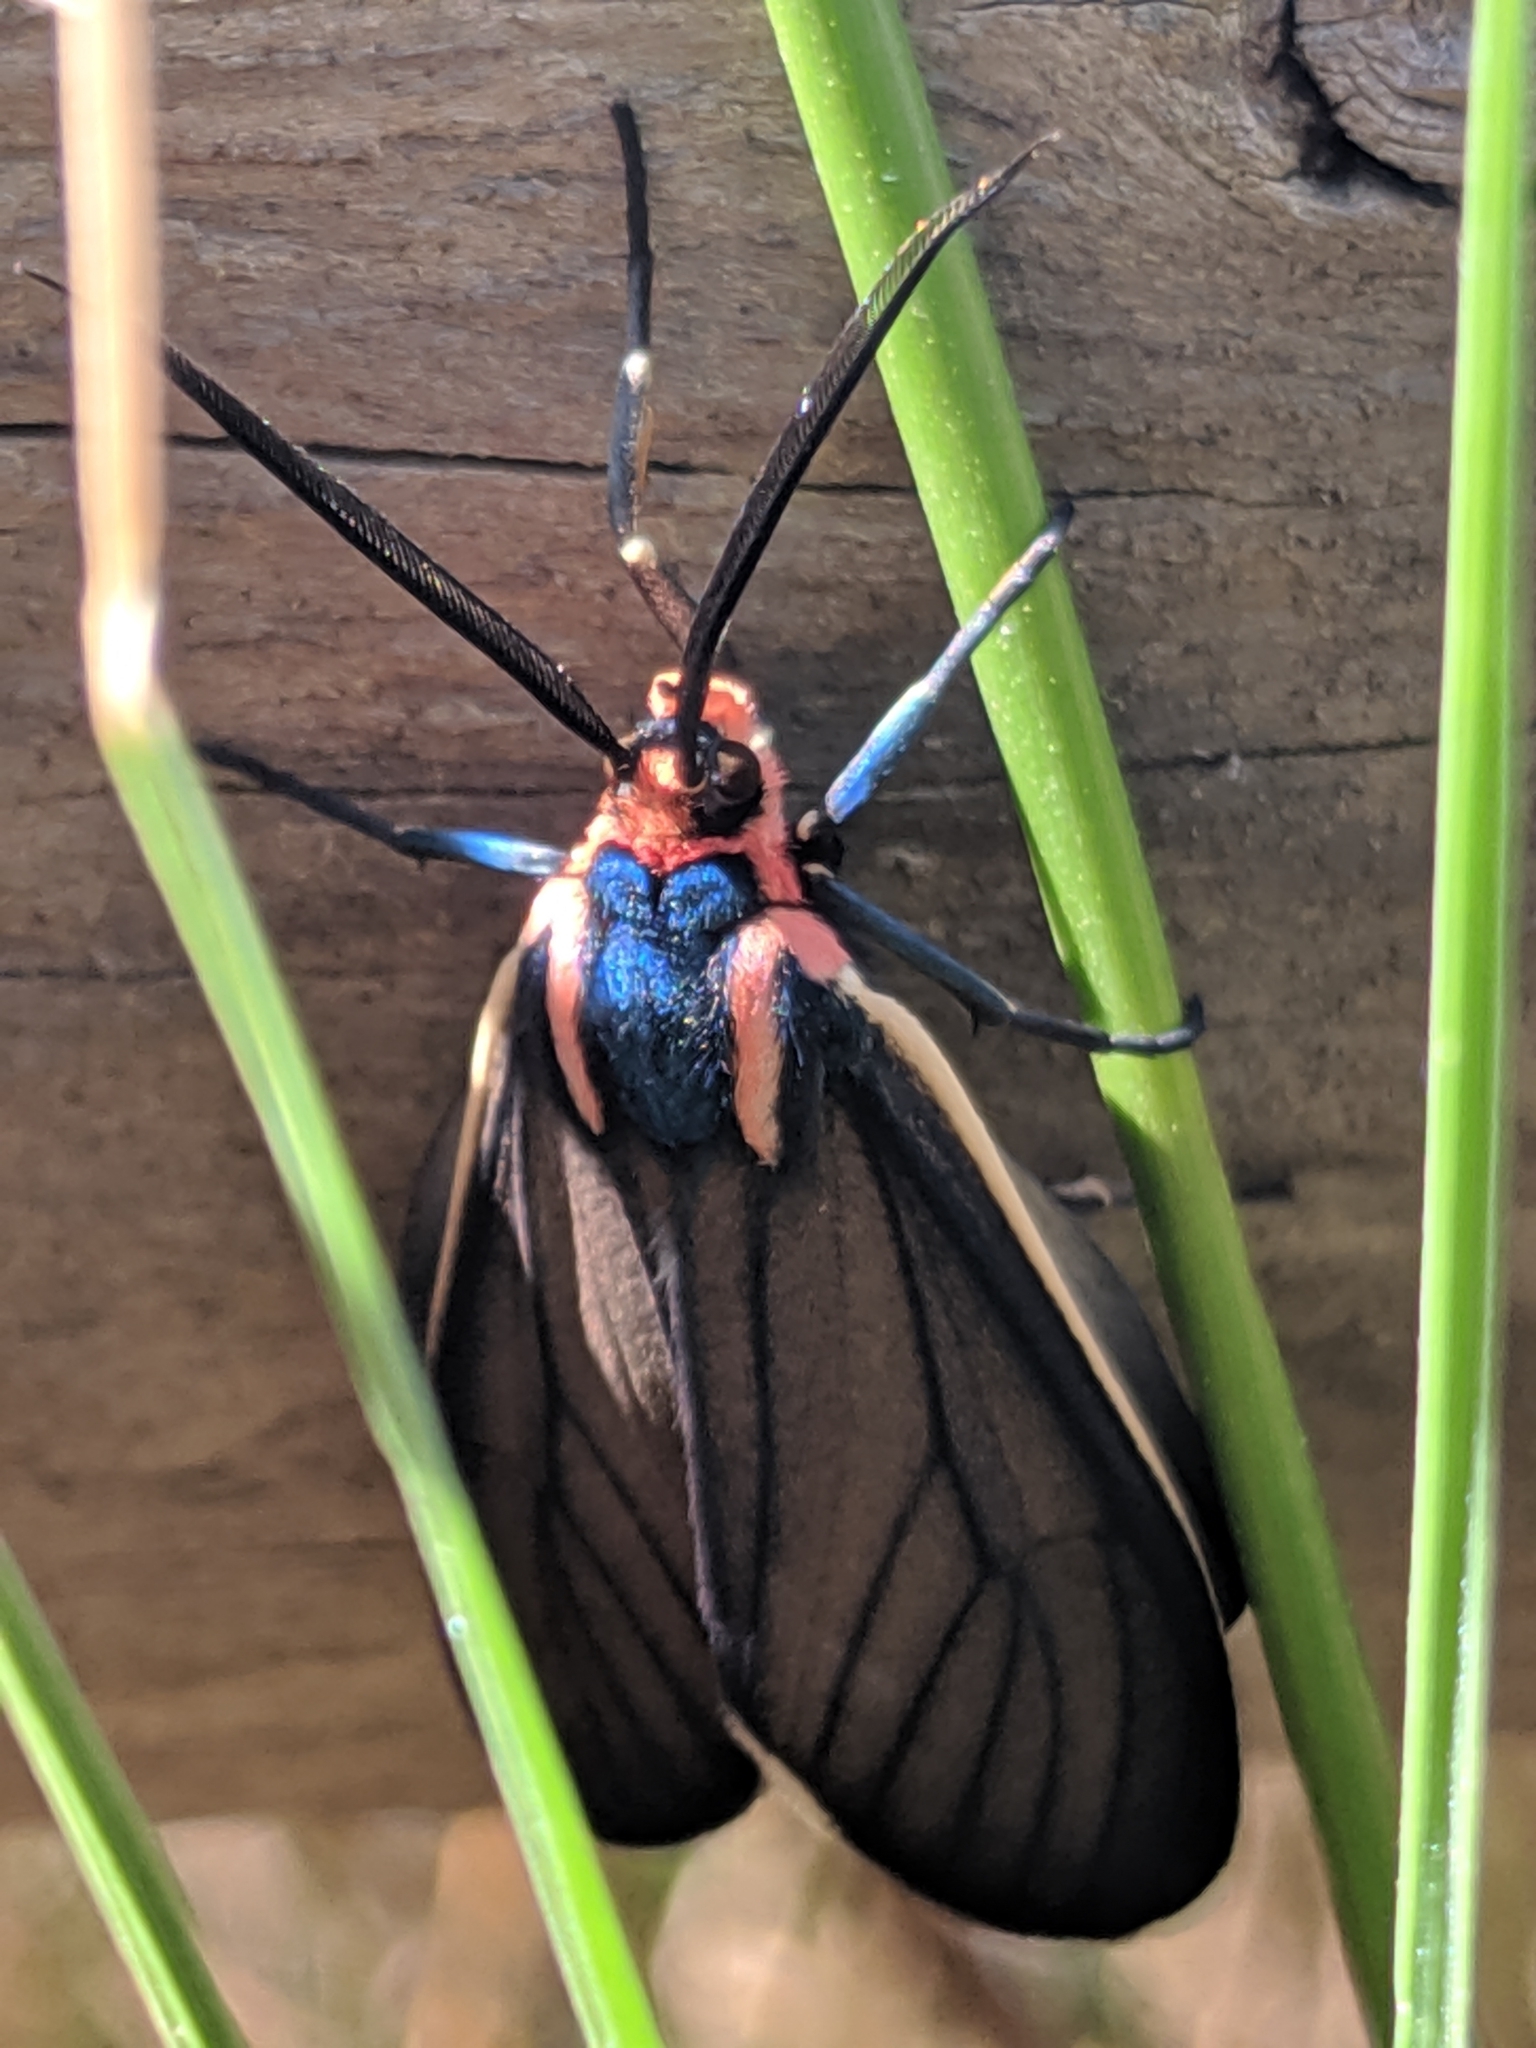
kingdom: Animalia
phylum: Arthropoda
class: Insecta
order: Lepidoptera
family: Erebidae
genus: Ctenucha
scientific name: Ctenucha brunnea
